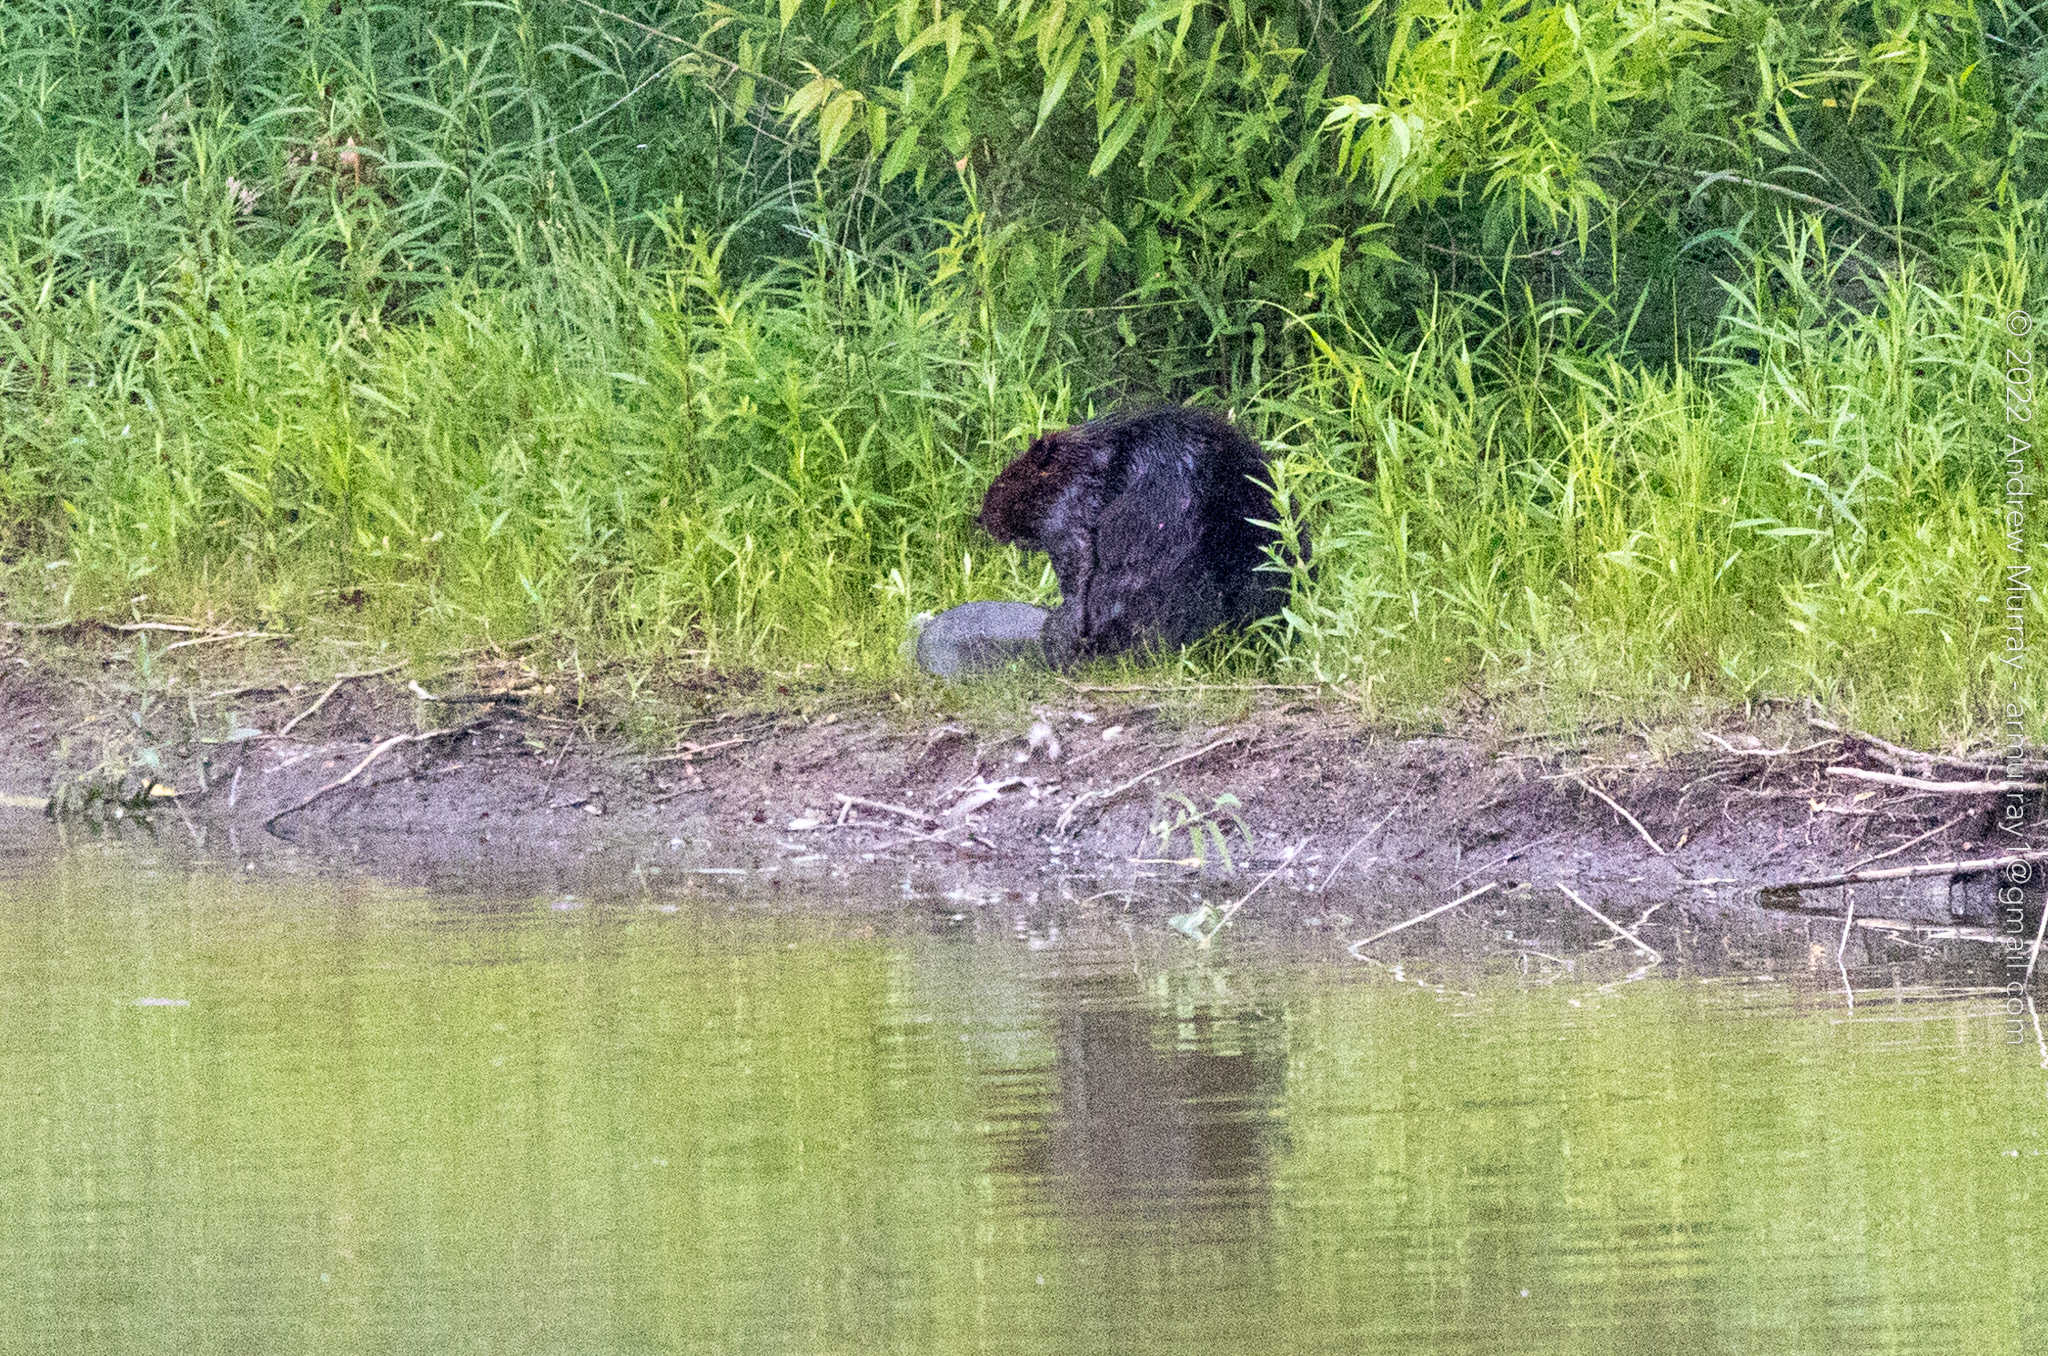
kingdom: Animalia
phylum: Chordata
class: Mammalia
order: Rodentia
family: Castoridae
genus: Castor
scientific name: Castor canadensis
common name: American beaver
